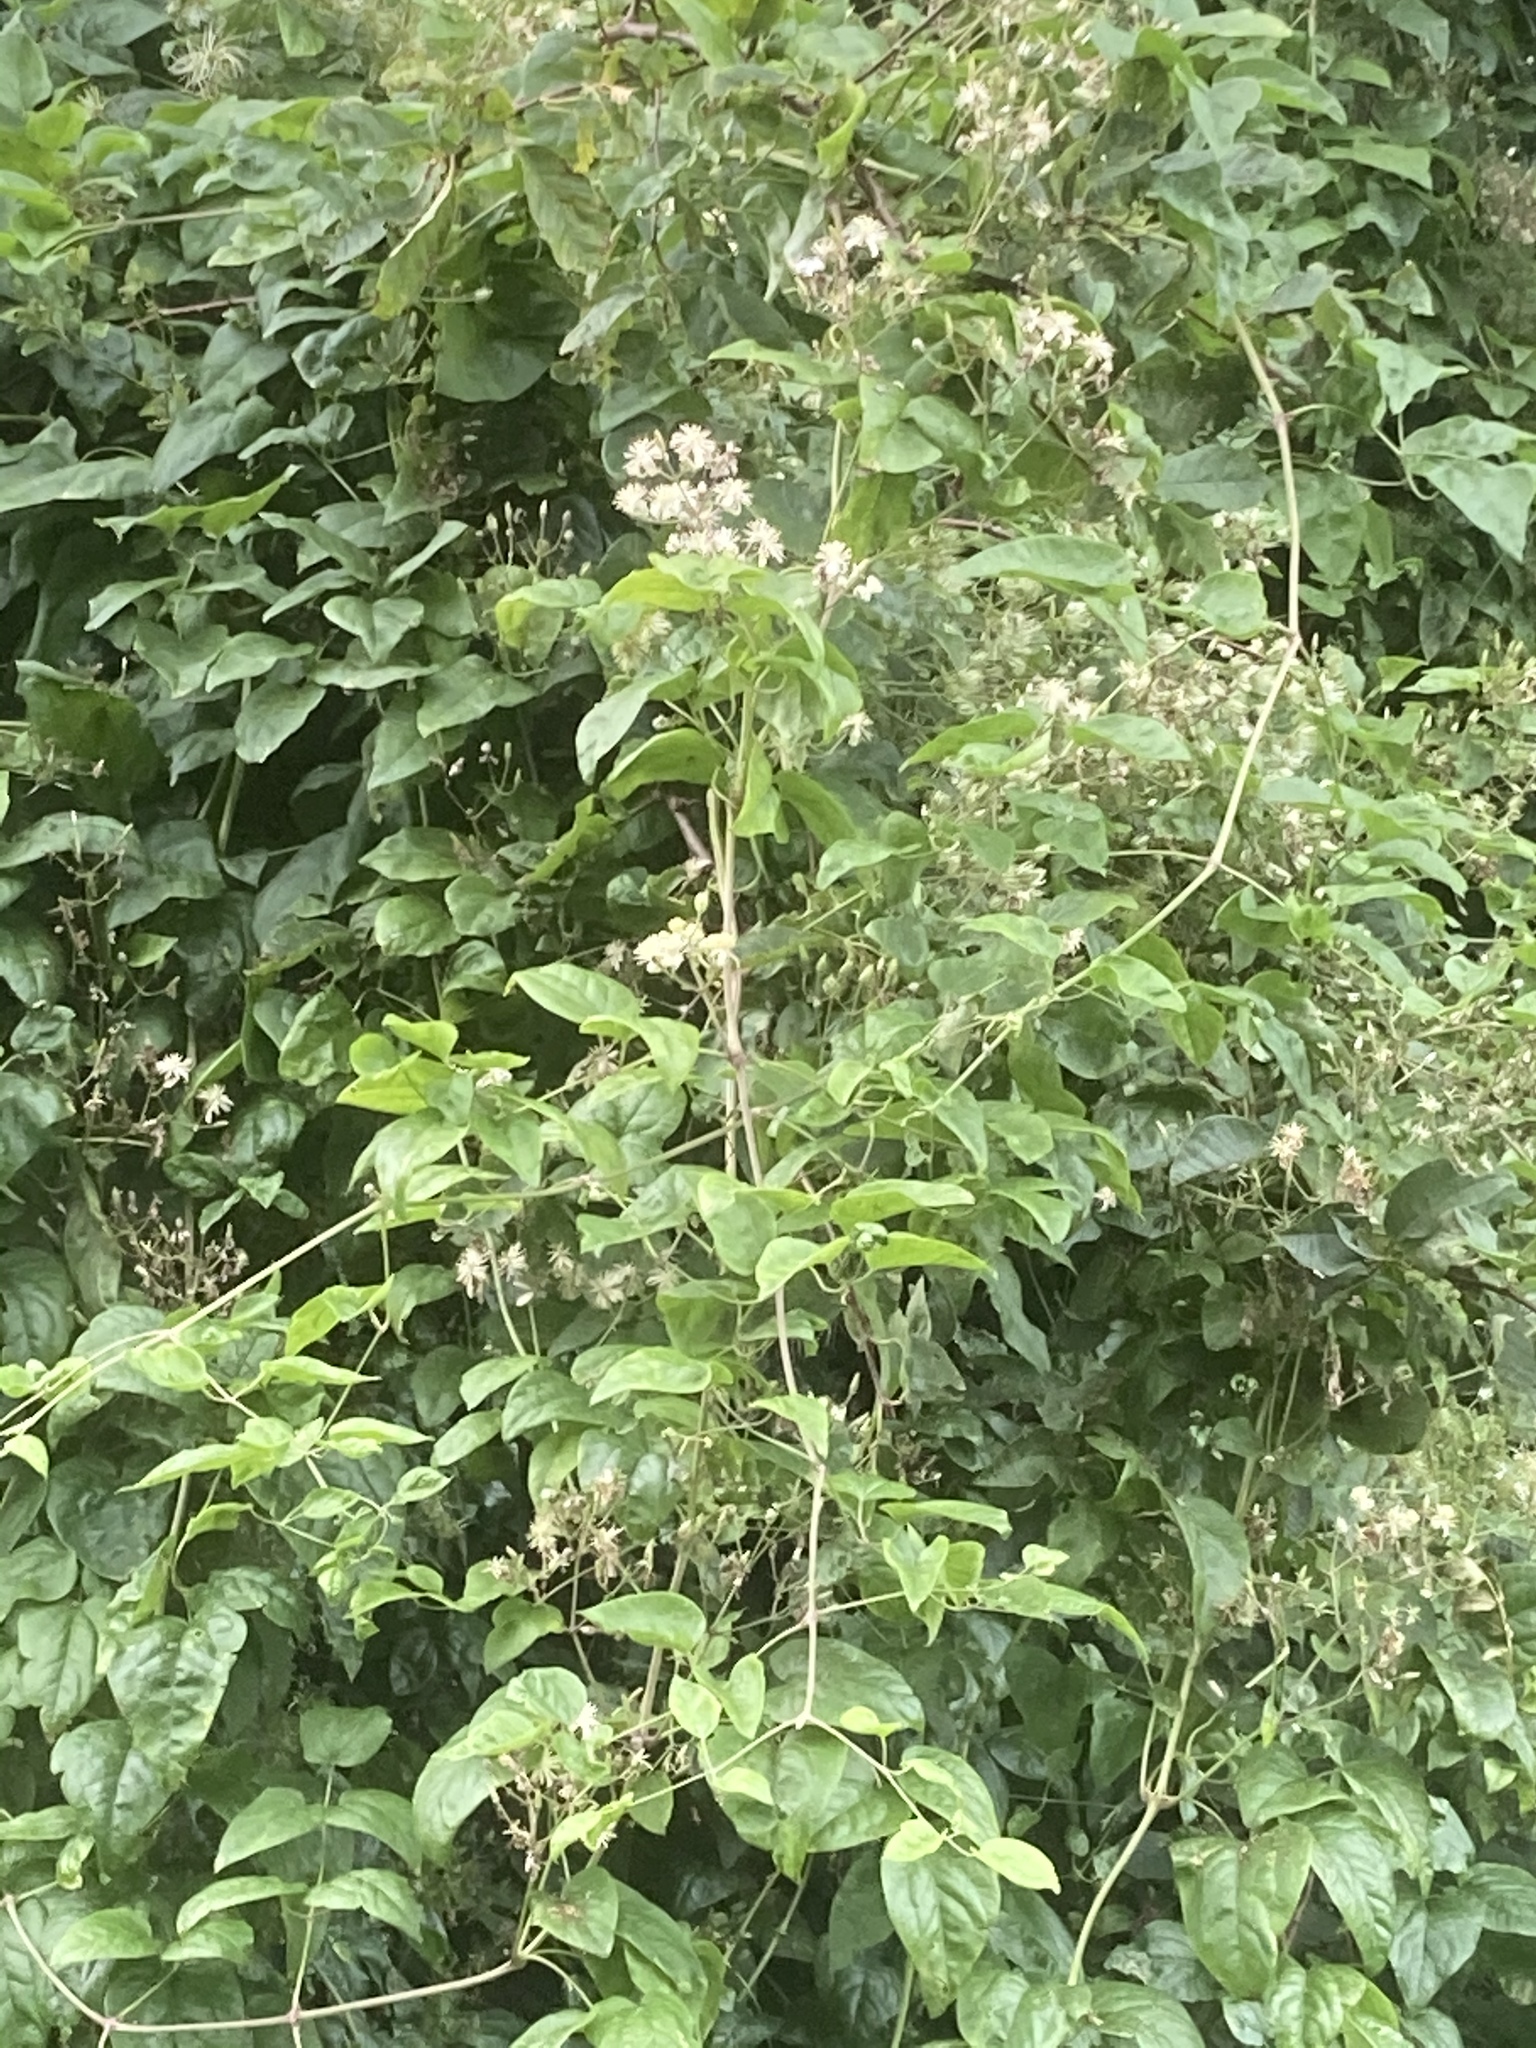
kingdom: Plantae
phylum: Tracheophyta
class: Magnoliopsida
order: Ranunculales
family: Ranunculaceae
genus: Clematis
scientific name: Clematis vitalba
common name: Evergreen clematis
